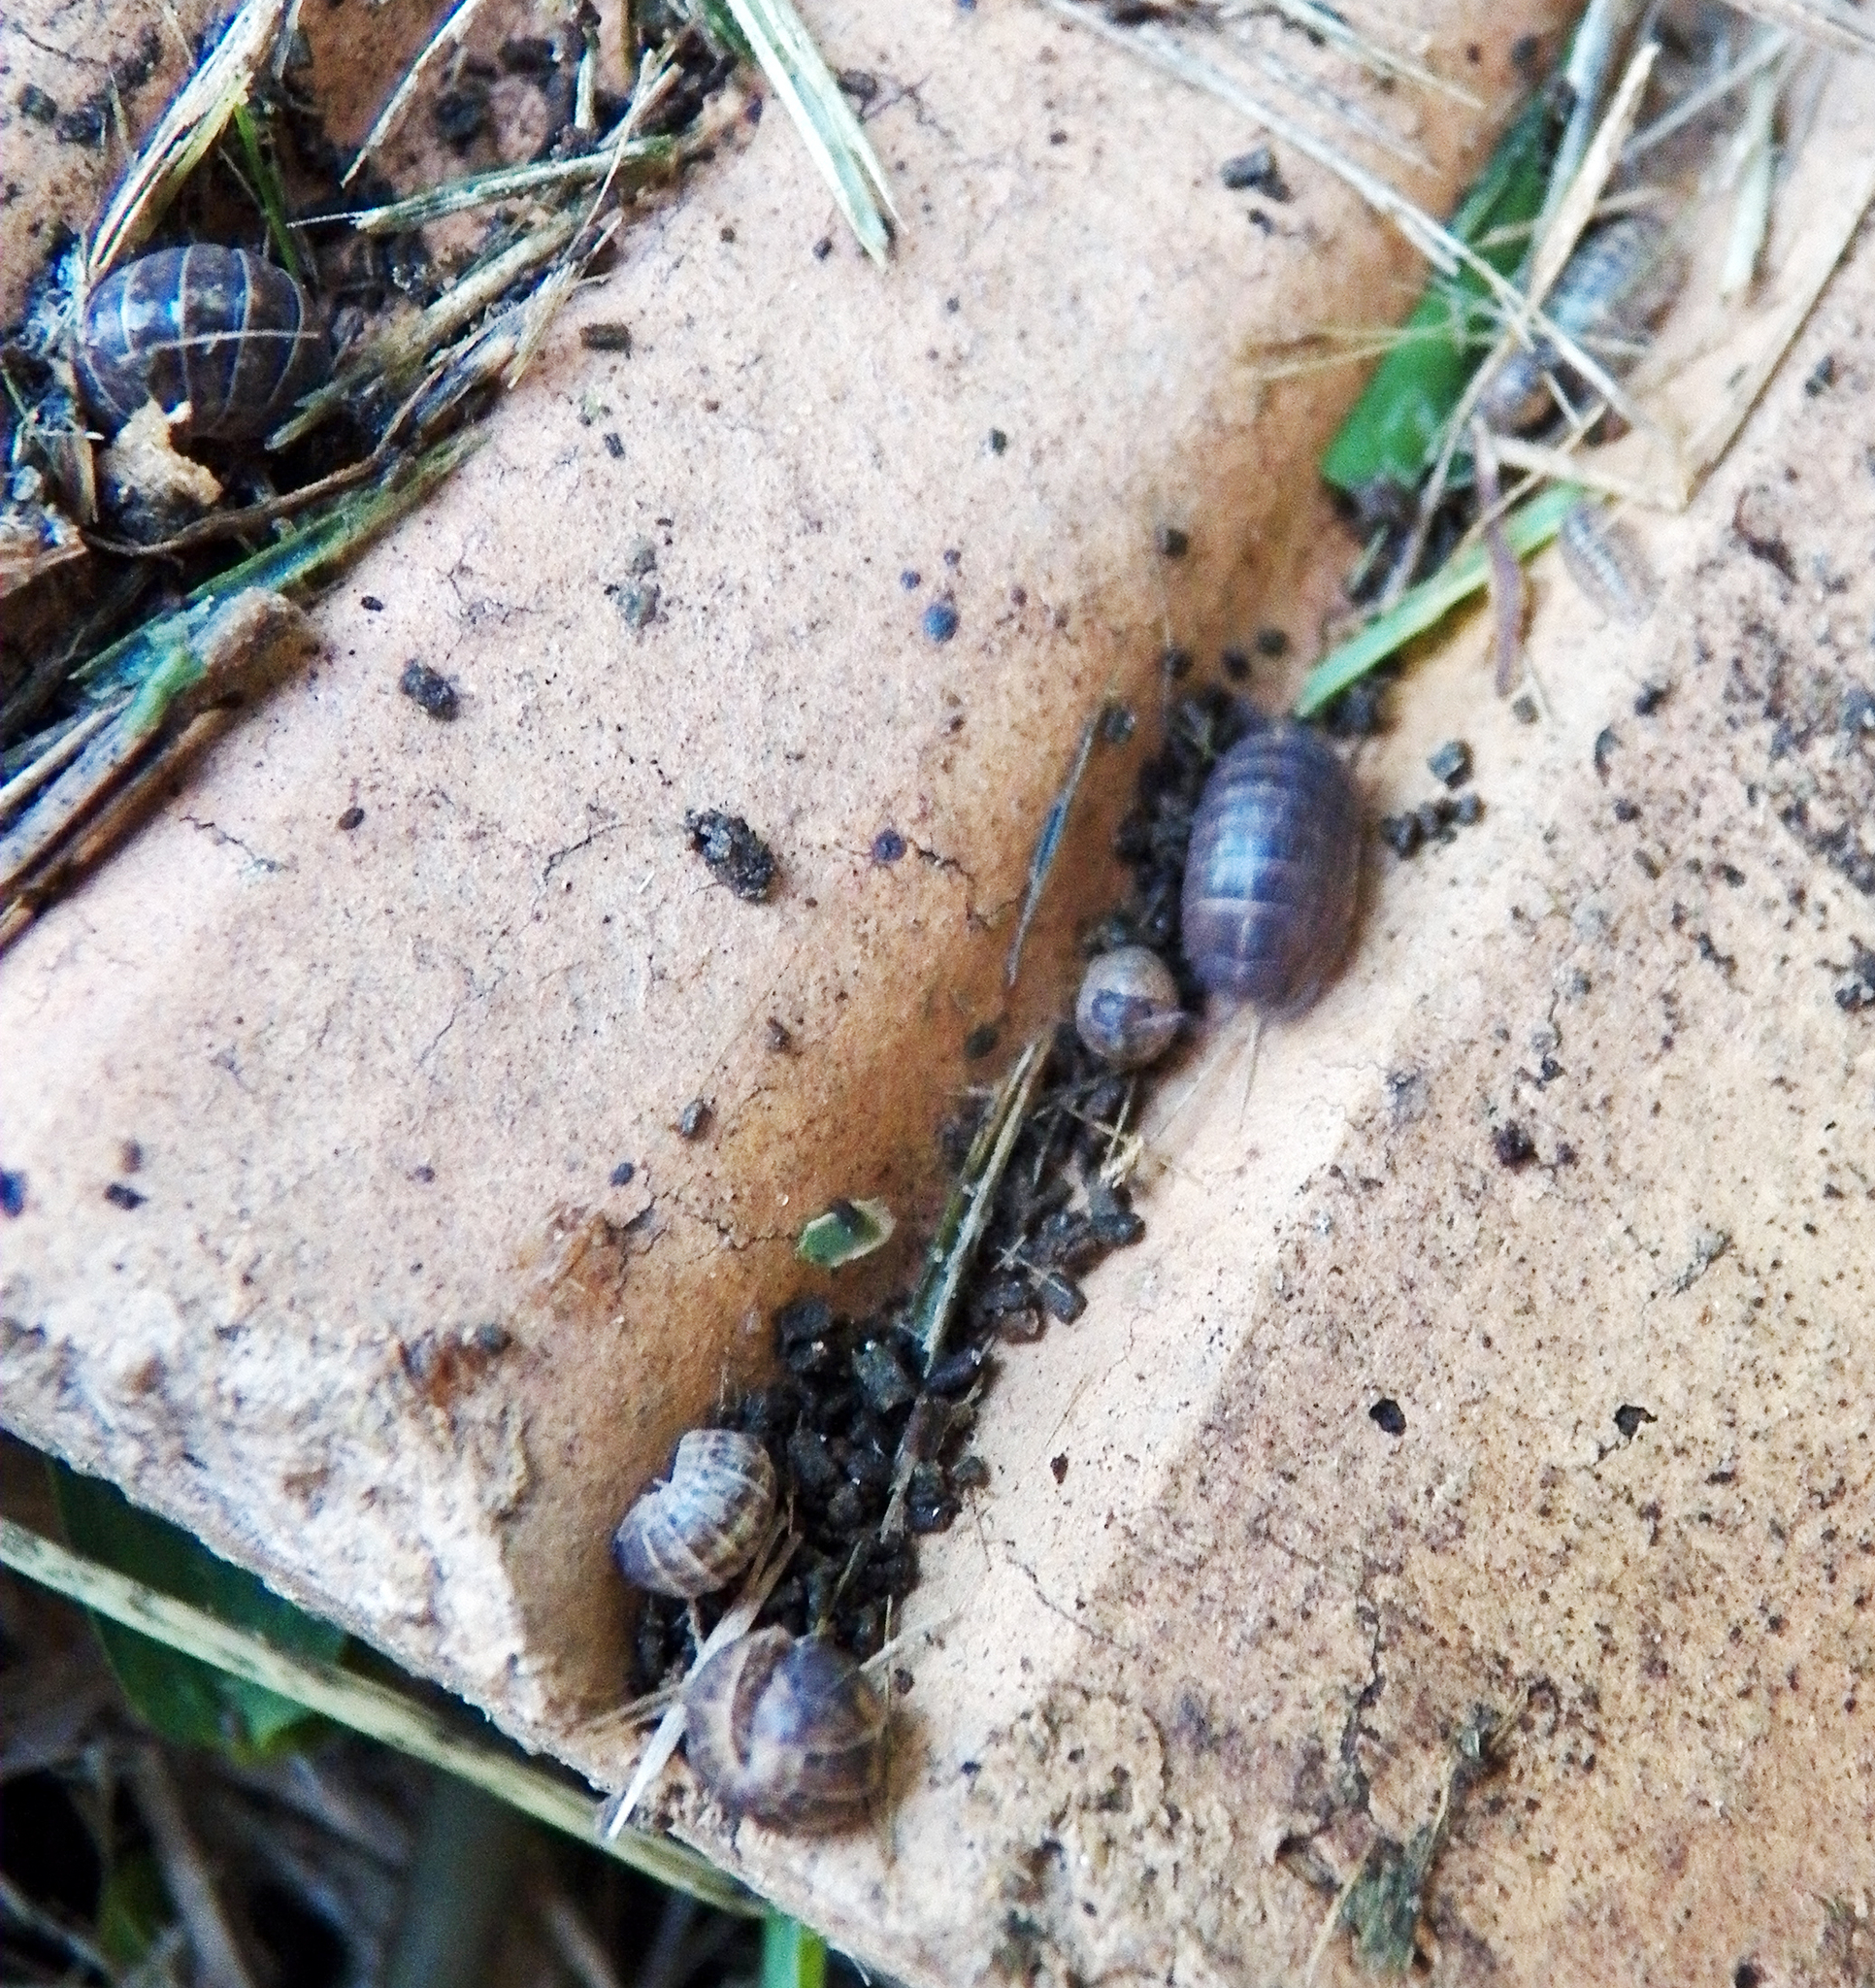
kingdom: Animalia
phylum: Arthropoda
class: Malacostraca
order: Isopoda
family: Armadillidiidae
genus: Armadillidium
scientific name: Armadillidium vulgare
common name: Common pill woodlouse
